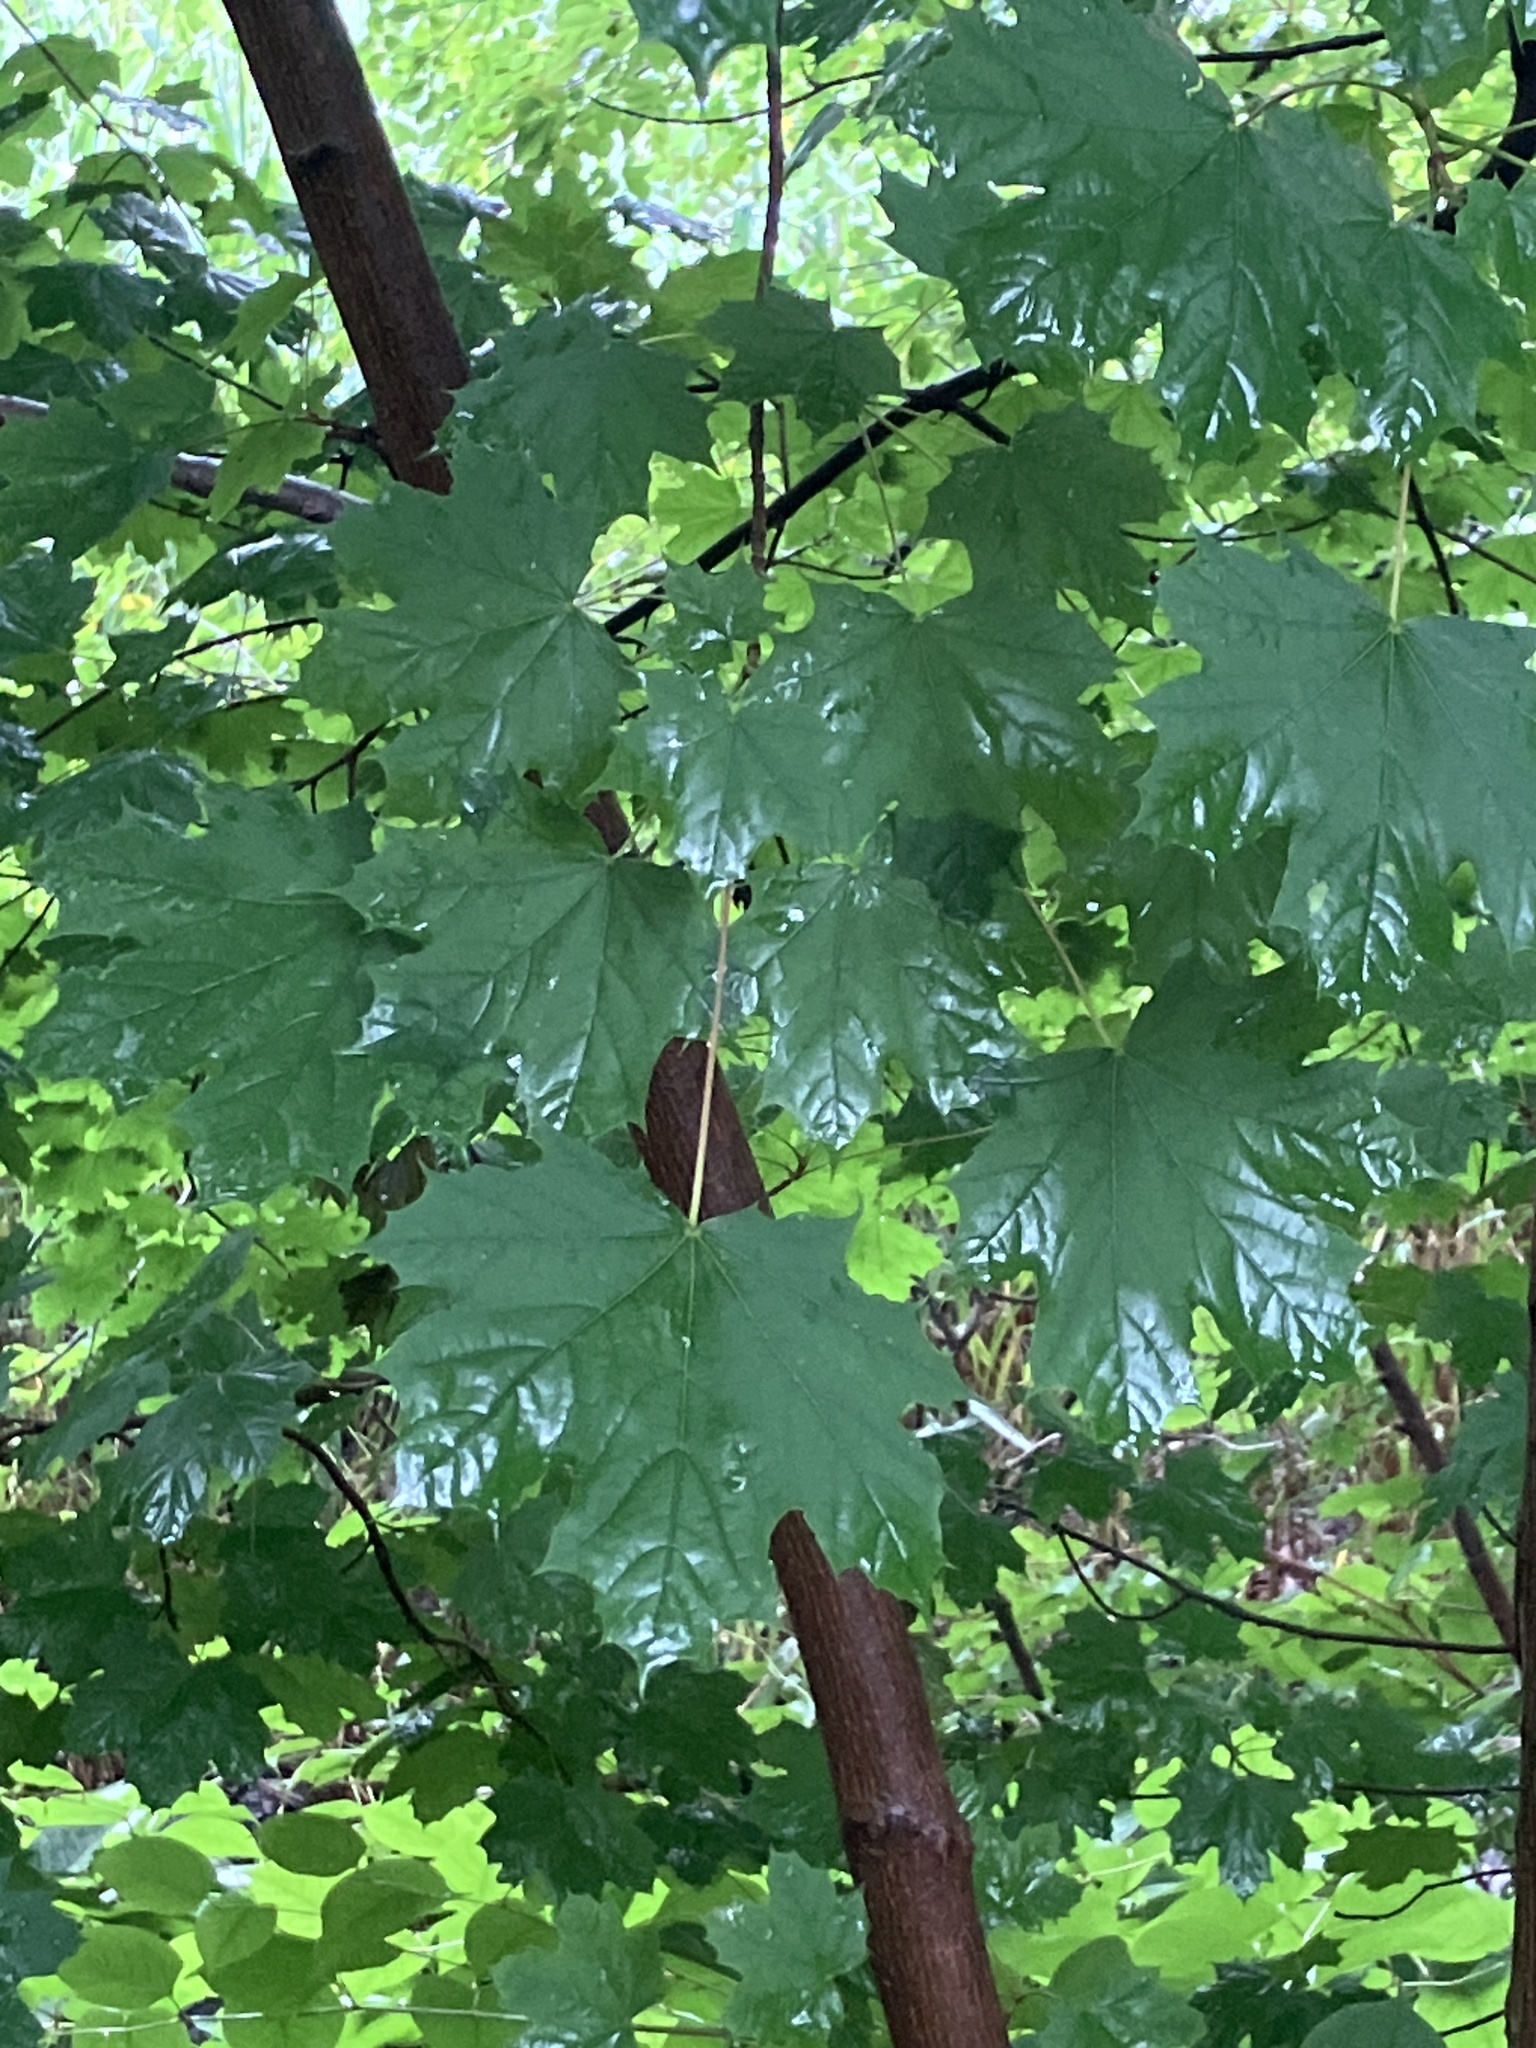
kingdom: Plantae
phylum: Tracheophyta
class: Magnoliopsida
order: Sapindales
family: Sapindaceae
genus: Acer
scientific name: Acer platanoides
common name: Norway maple
